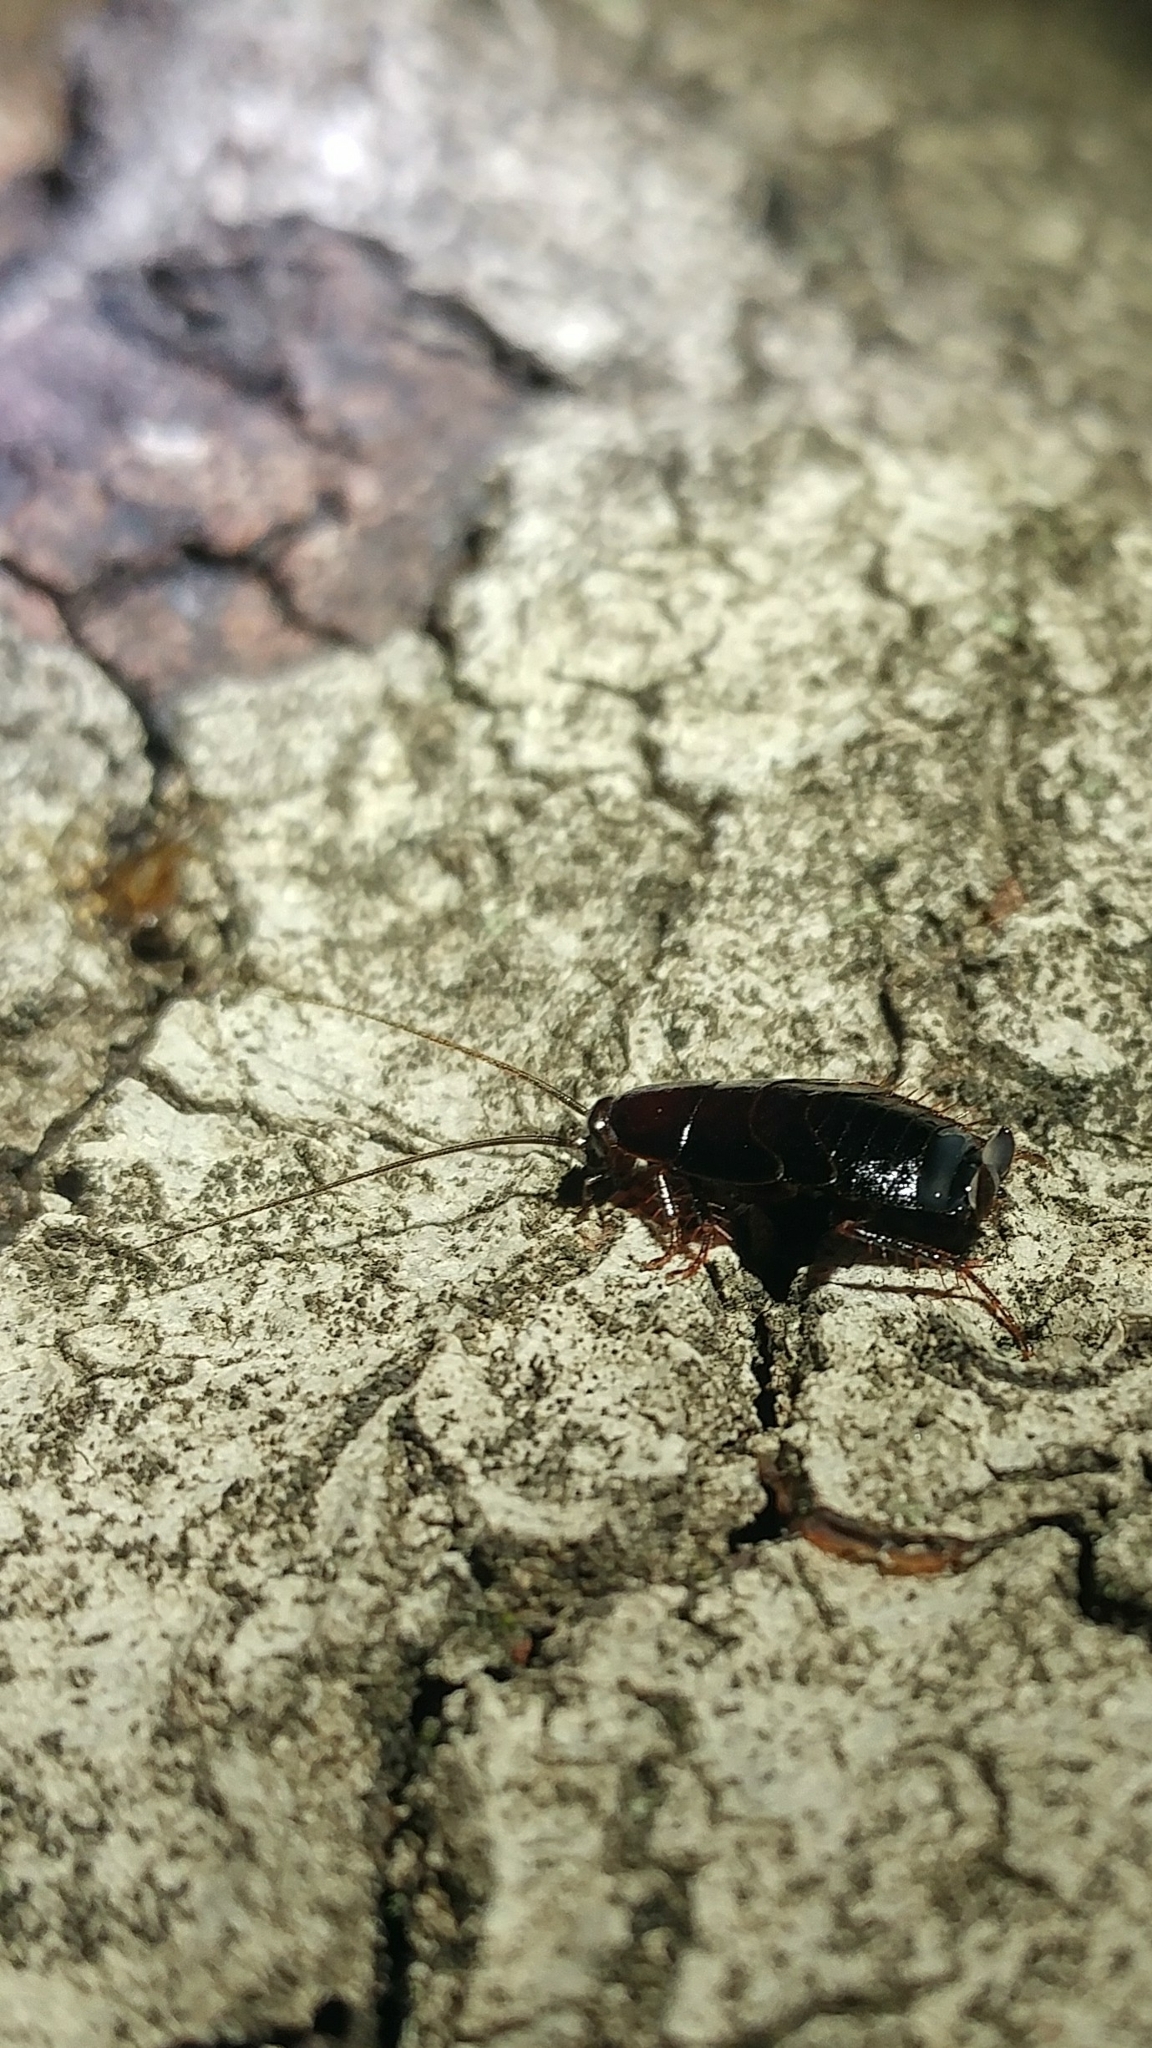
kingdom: Animalia
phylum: Arthropoda
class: Insecta
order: Blattodea
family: Ectobiidae
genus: Parcoblatta
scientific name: Parcoblatta americana
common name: Western wood cockroach
